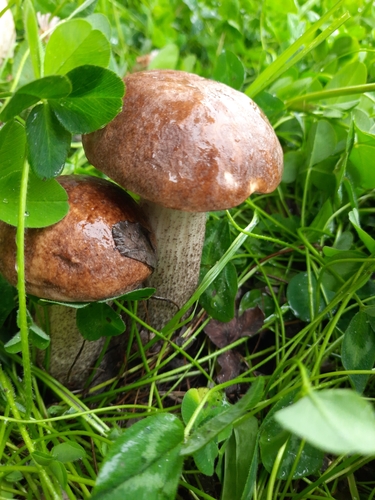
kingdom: Fungi
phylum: Basidiomycota
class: Agaricomycetes
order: Boletales
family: Boletaceae
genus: Leccinum
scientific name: Leccinum scabrum
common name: Blushing bolete
